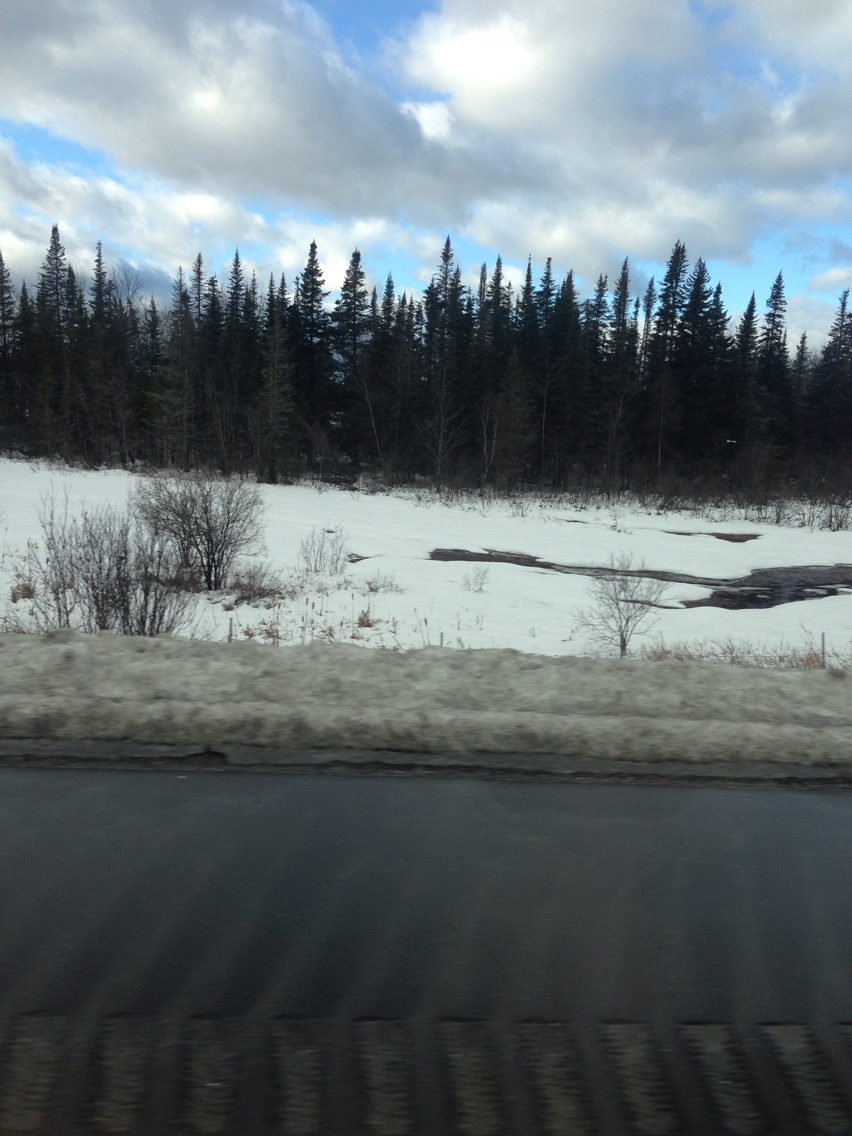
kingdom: Plantae
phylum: Tracheophyta
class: Pinopsida
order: Pinales
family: Pinaceae
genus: Abies
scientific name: Abies balsamea
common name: Balsam fir
